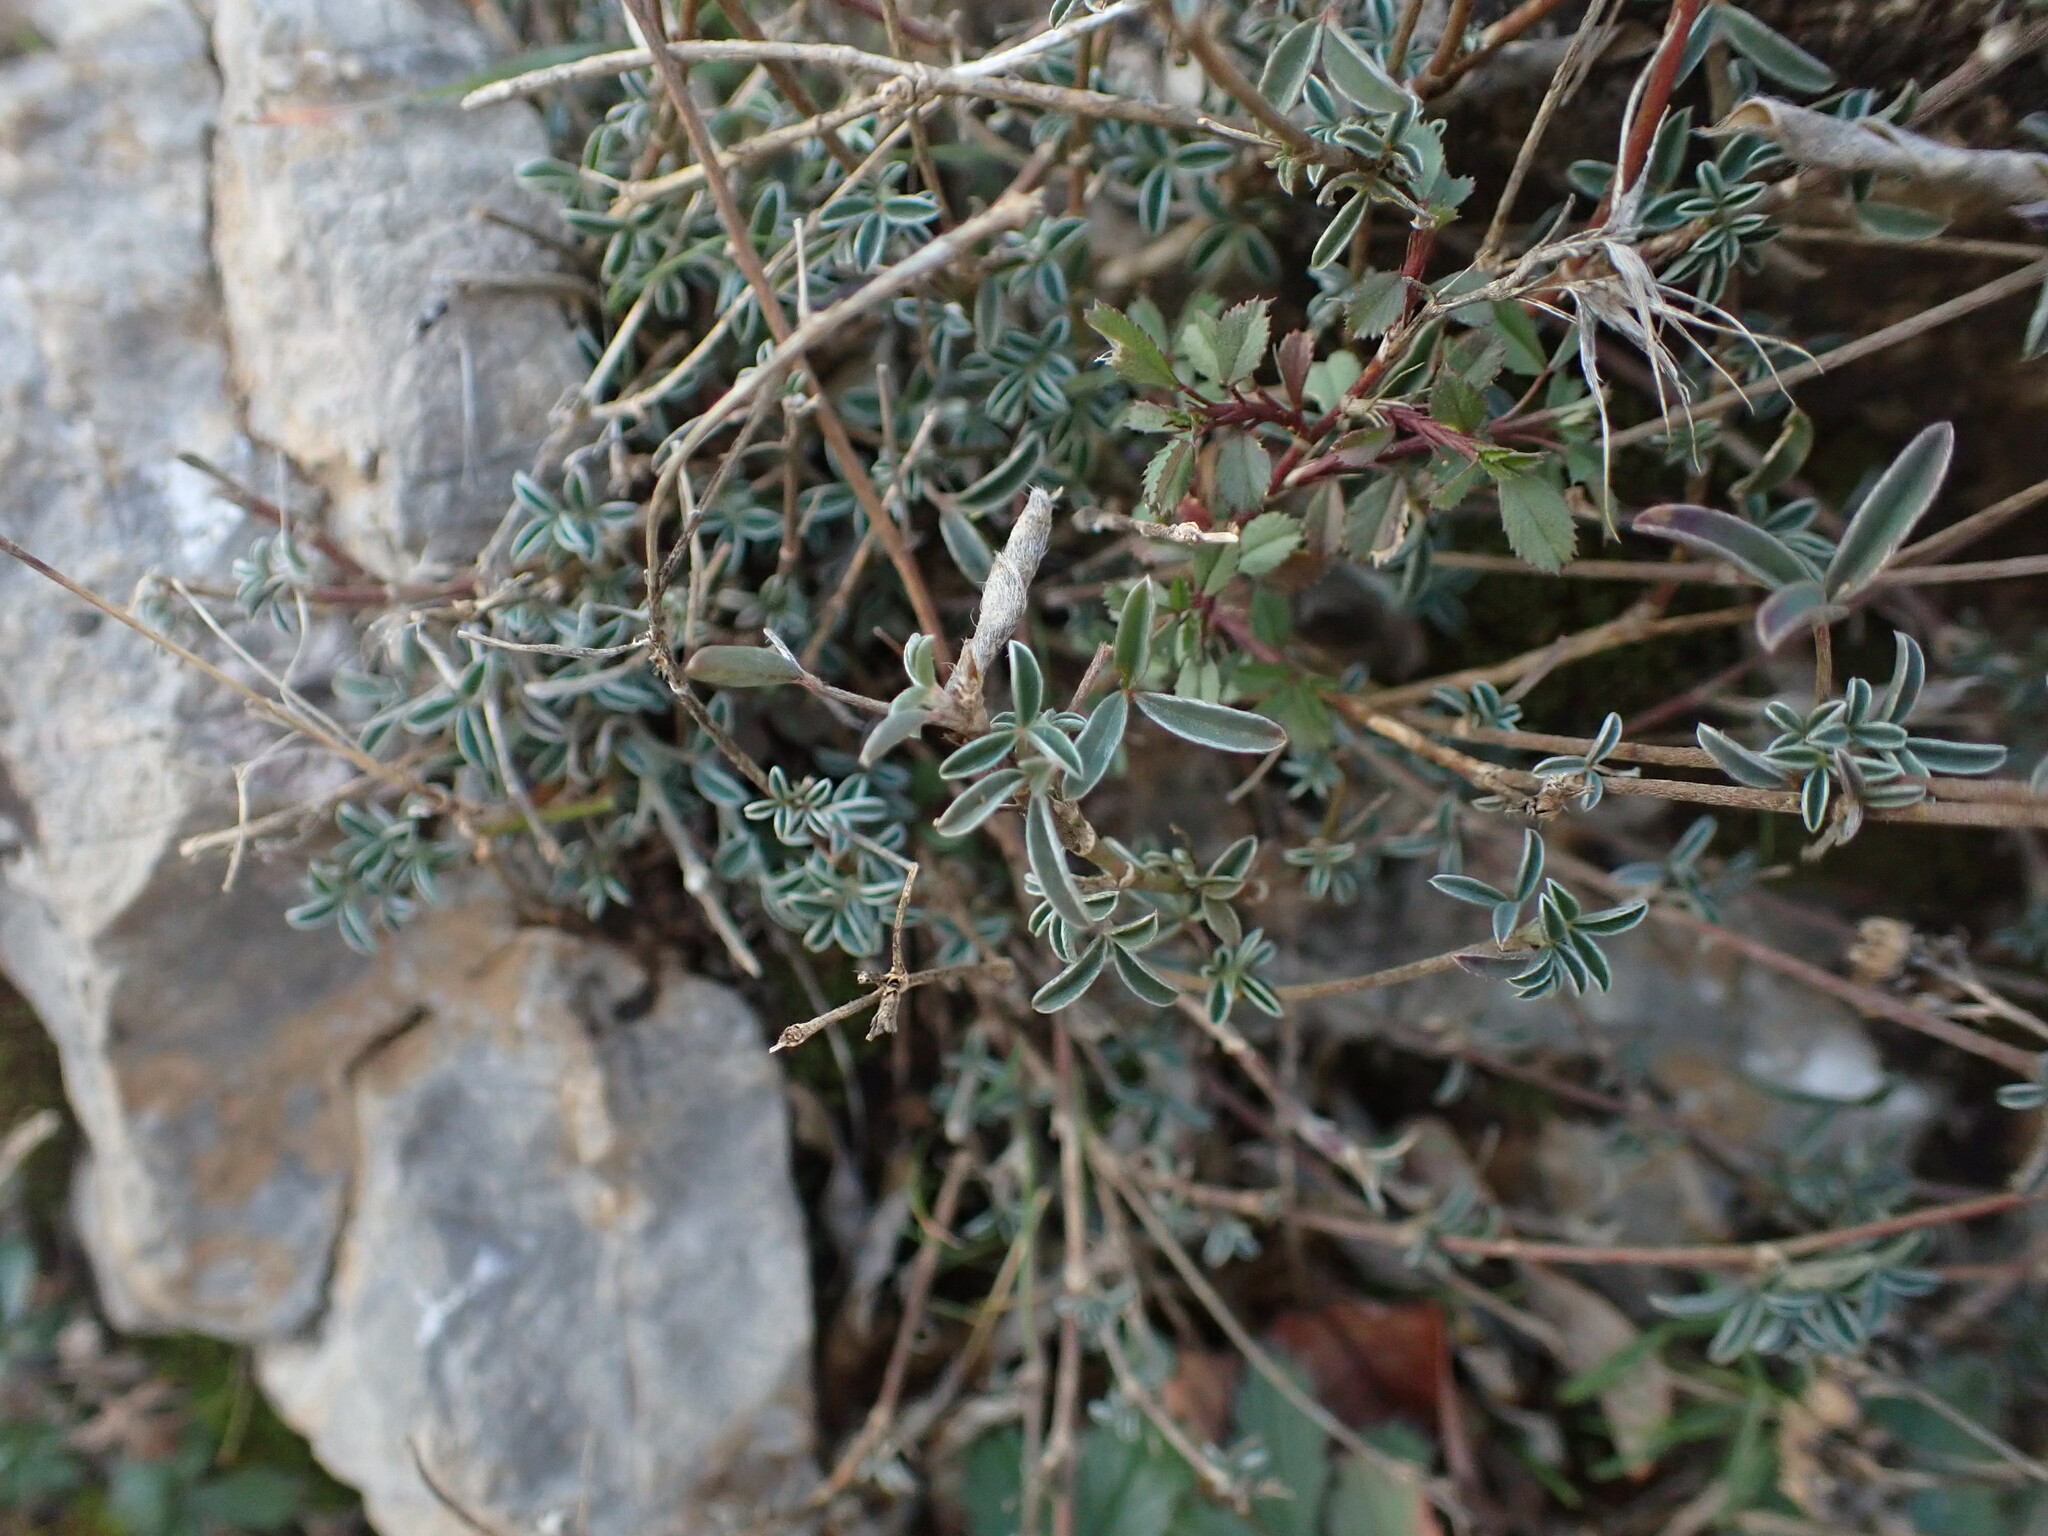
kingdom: Plantae
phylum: Tracheophyta
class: Magnoliopsida
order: Fabales
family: Fabaceae
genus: Argyrolobium
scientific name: Argyrolobium zanonii
